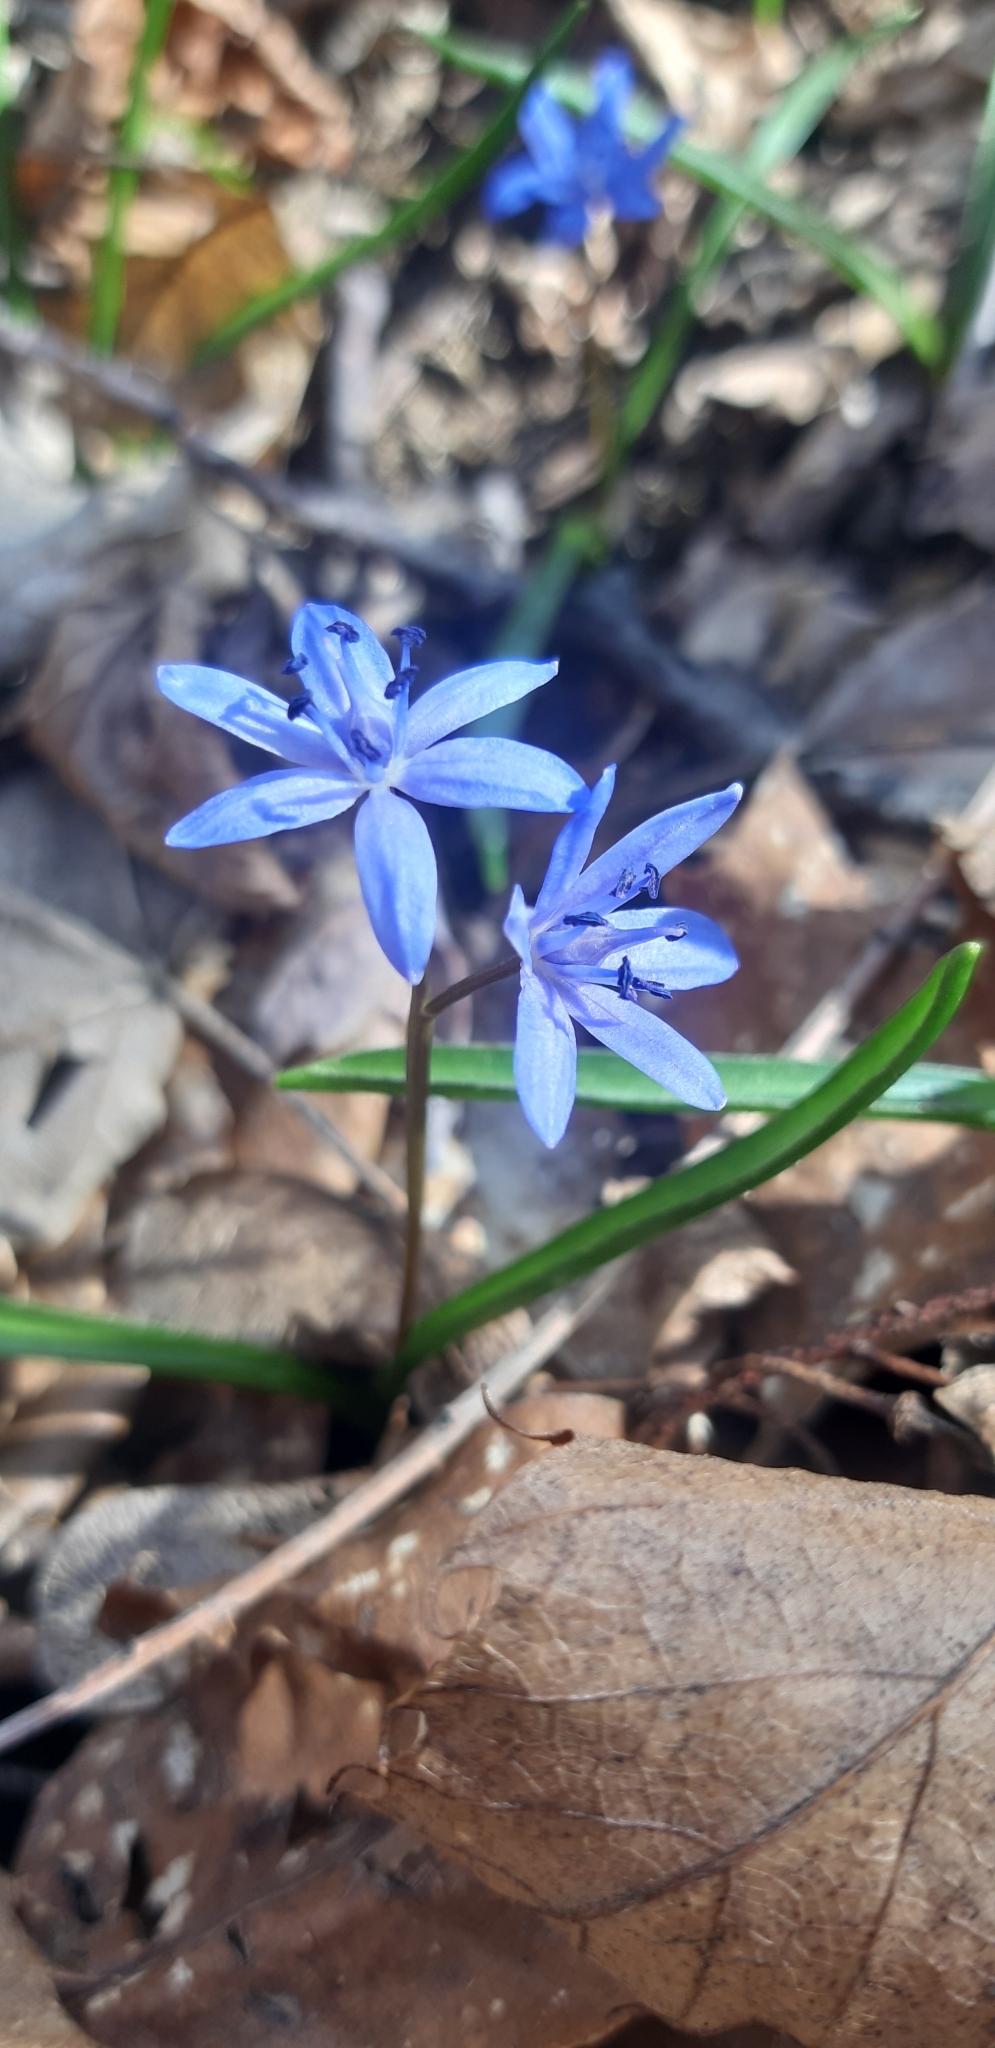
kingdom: Plantae
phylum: Tracheophyta
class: Liliopsida
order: Asparagales
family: Asparagaceae
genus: Scilla
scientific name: Scilla bifolia
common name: Alpine squill
